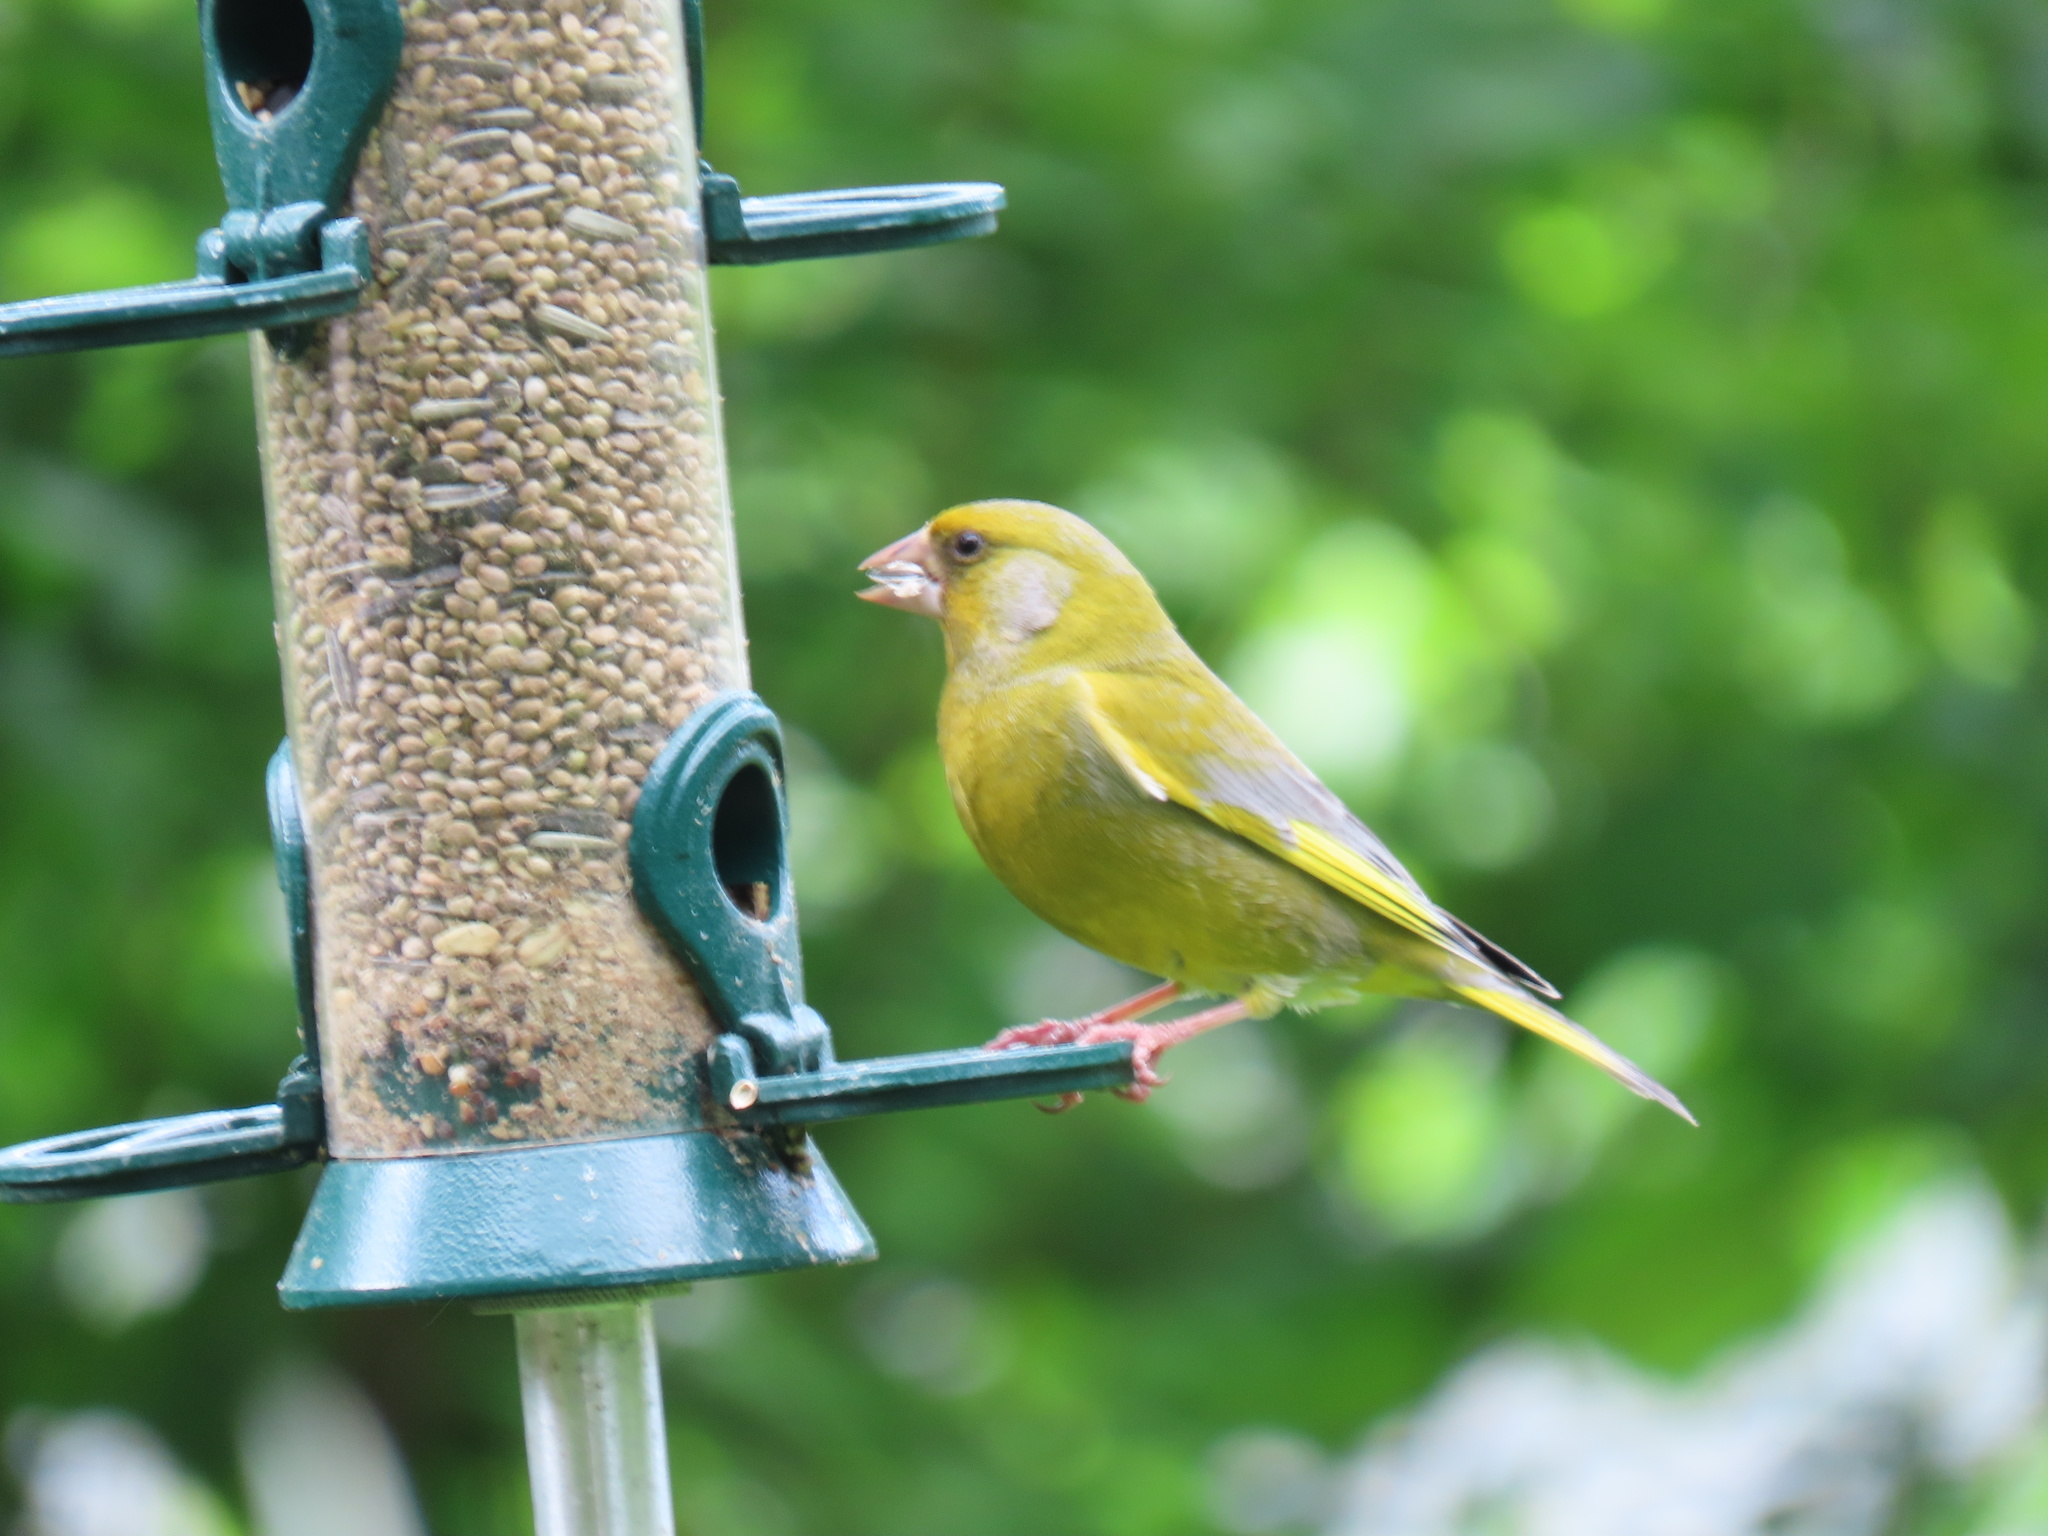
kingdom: Plantae
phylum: Tracheophyta
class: Liliopsida
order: Poales
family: Poaceae
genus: Chloris
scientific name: Chloris chloris
